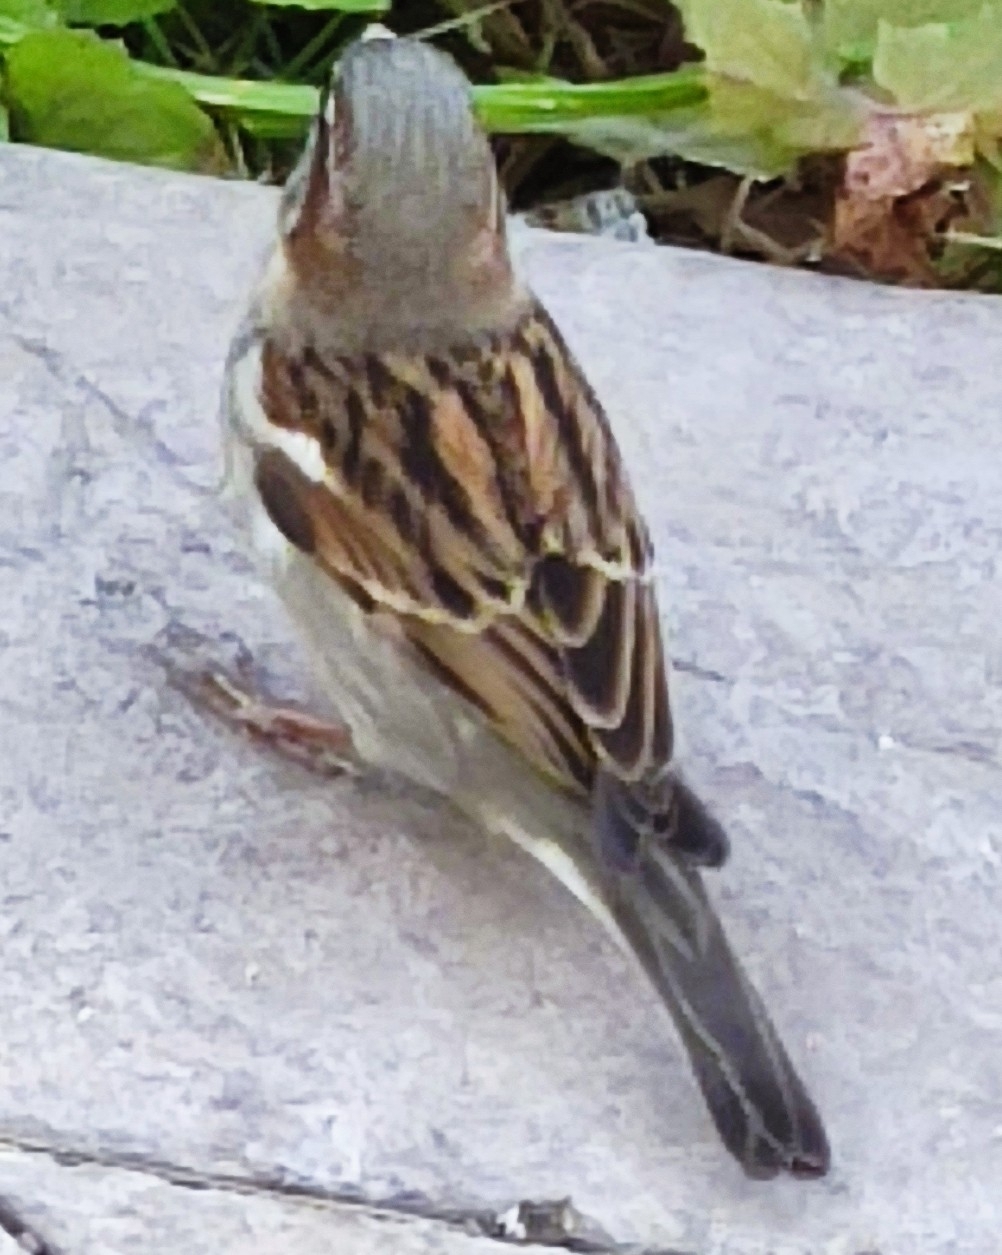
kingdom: Animalia
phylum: Chordata
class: Aves
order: Passeriformes
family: Passeridae
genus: Passer
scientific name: Passer domesticus
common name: House sparrow
